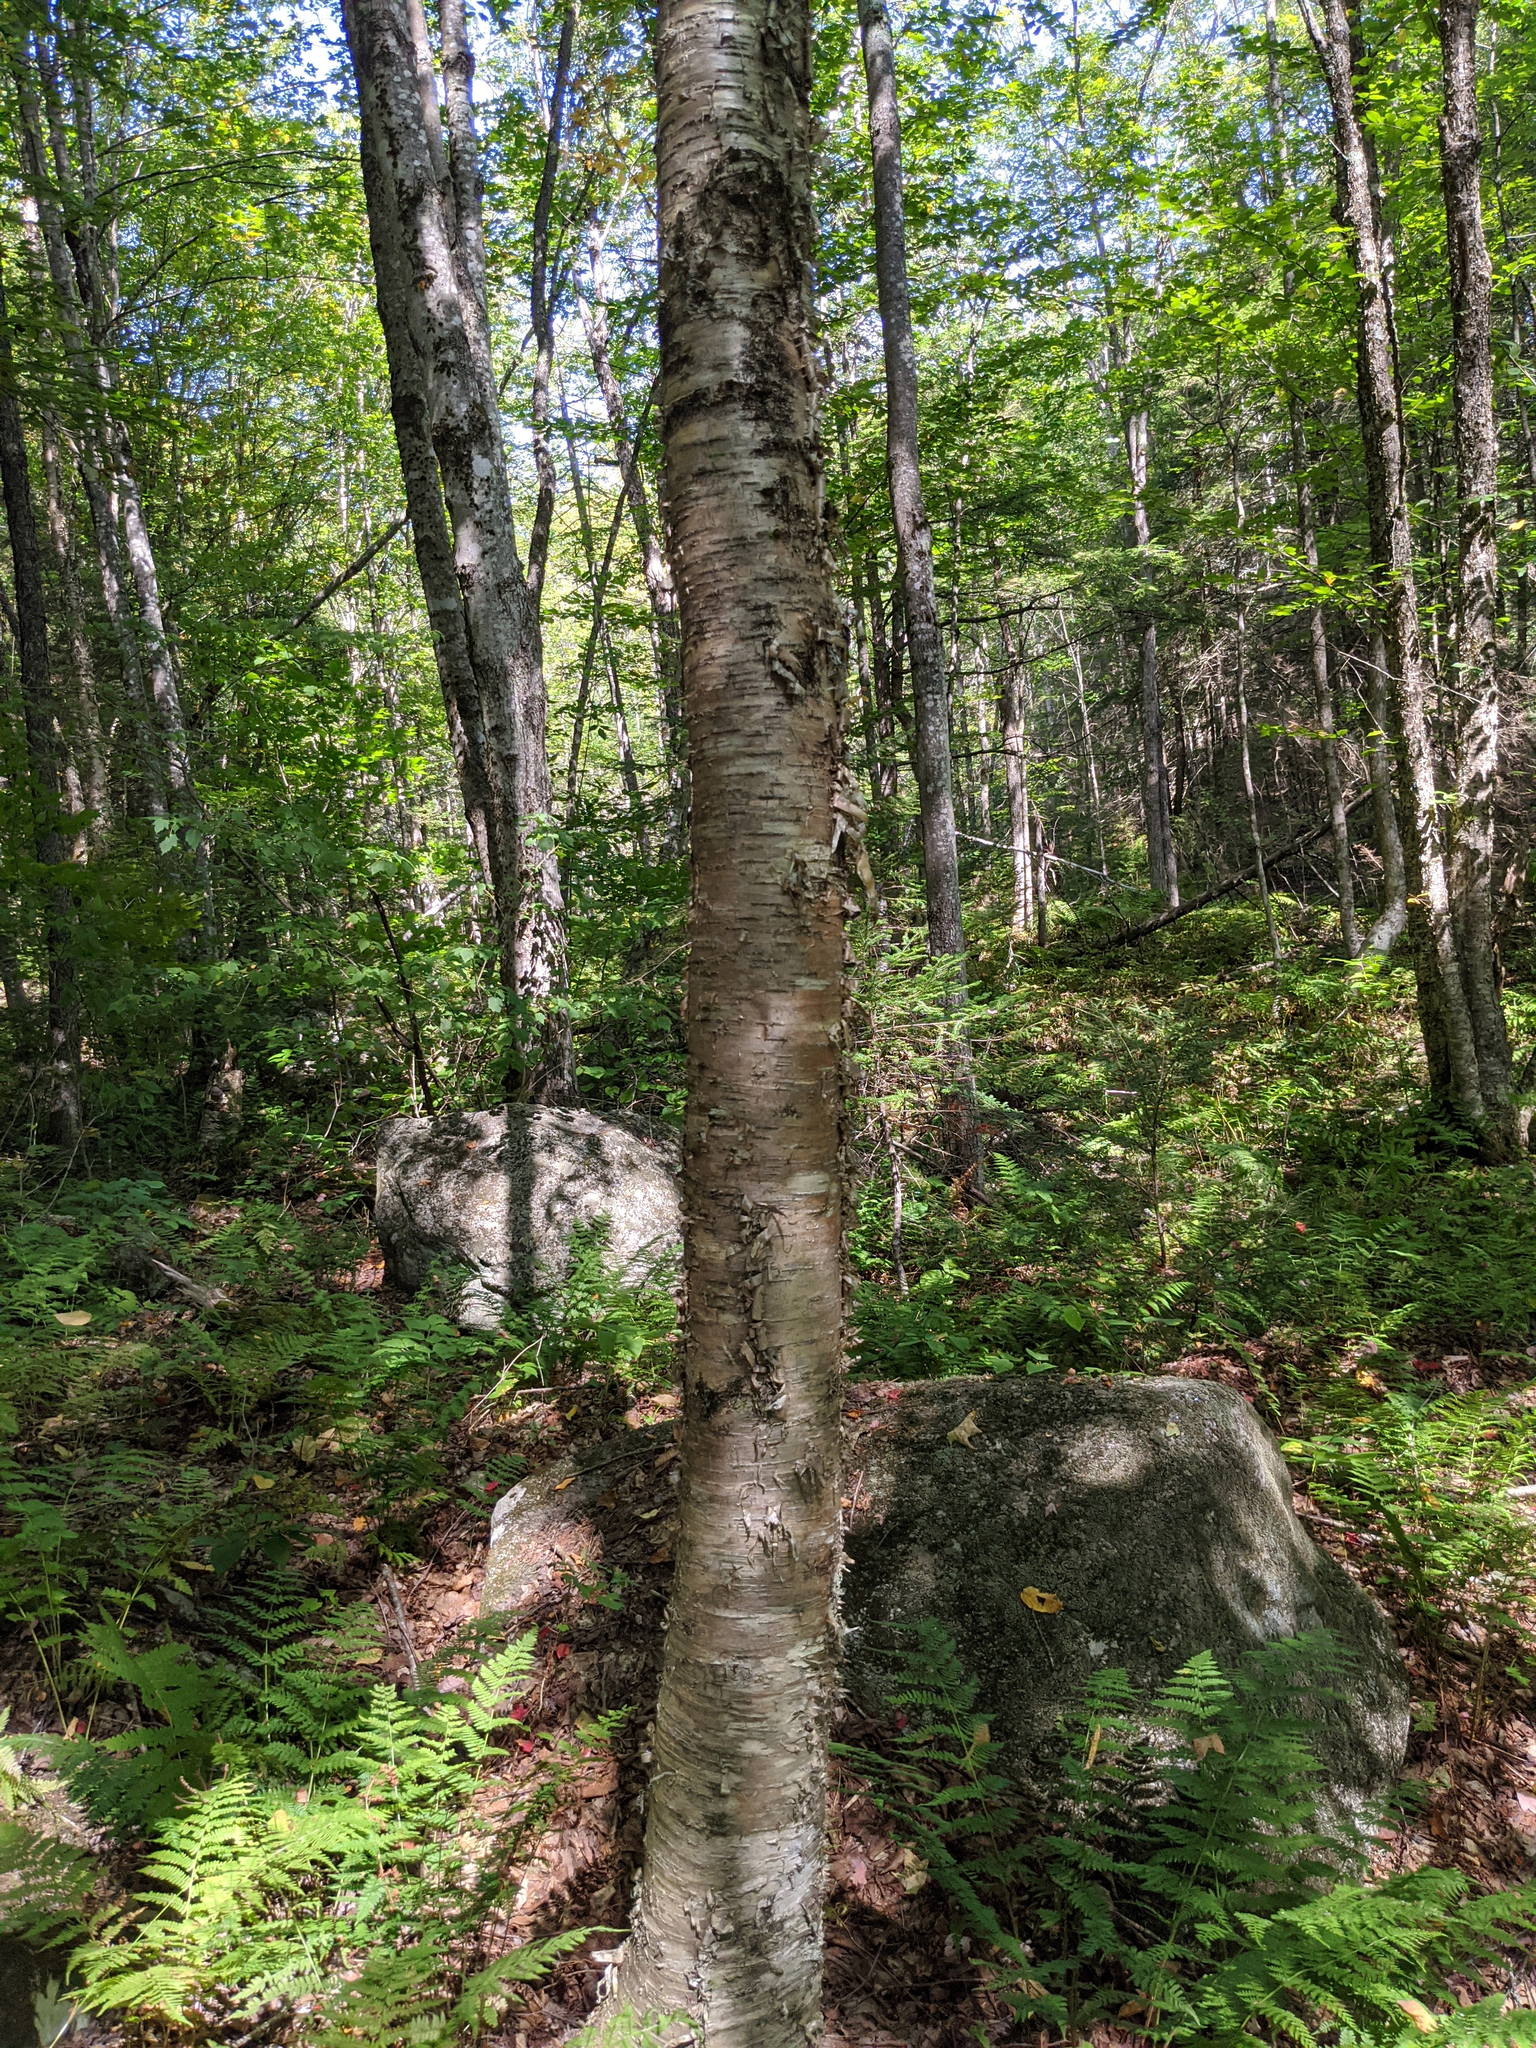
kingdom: Plantae
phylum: Tracheophyta
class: Magnoliopsida
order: Fagales
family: Betulaceae
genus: Betula
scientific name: Betula alleghaniensis
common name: Yellow birch
